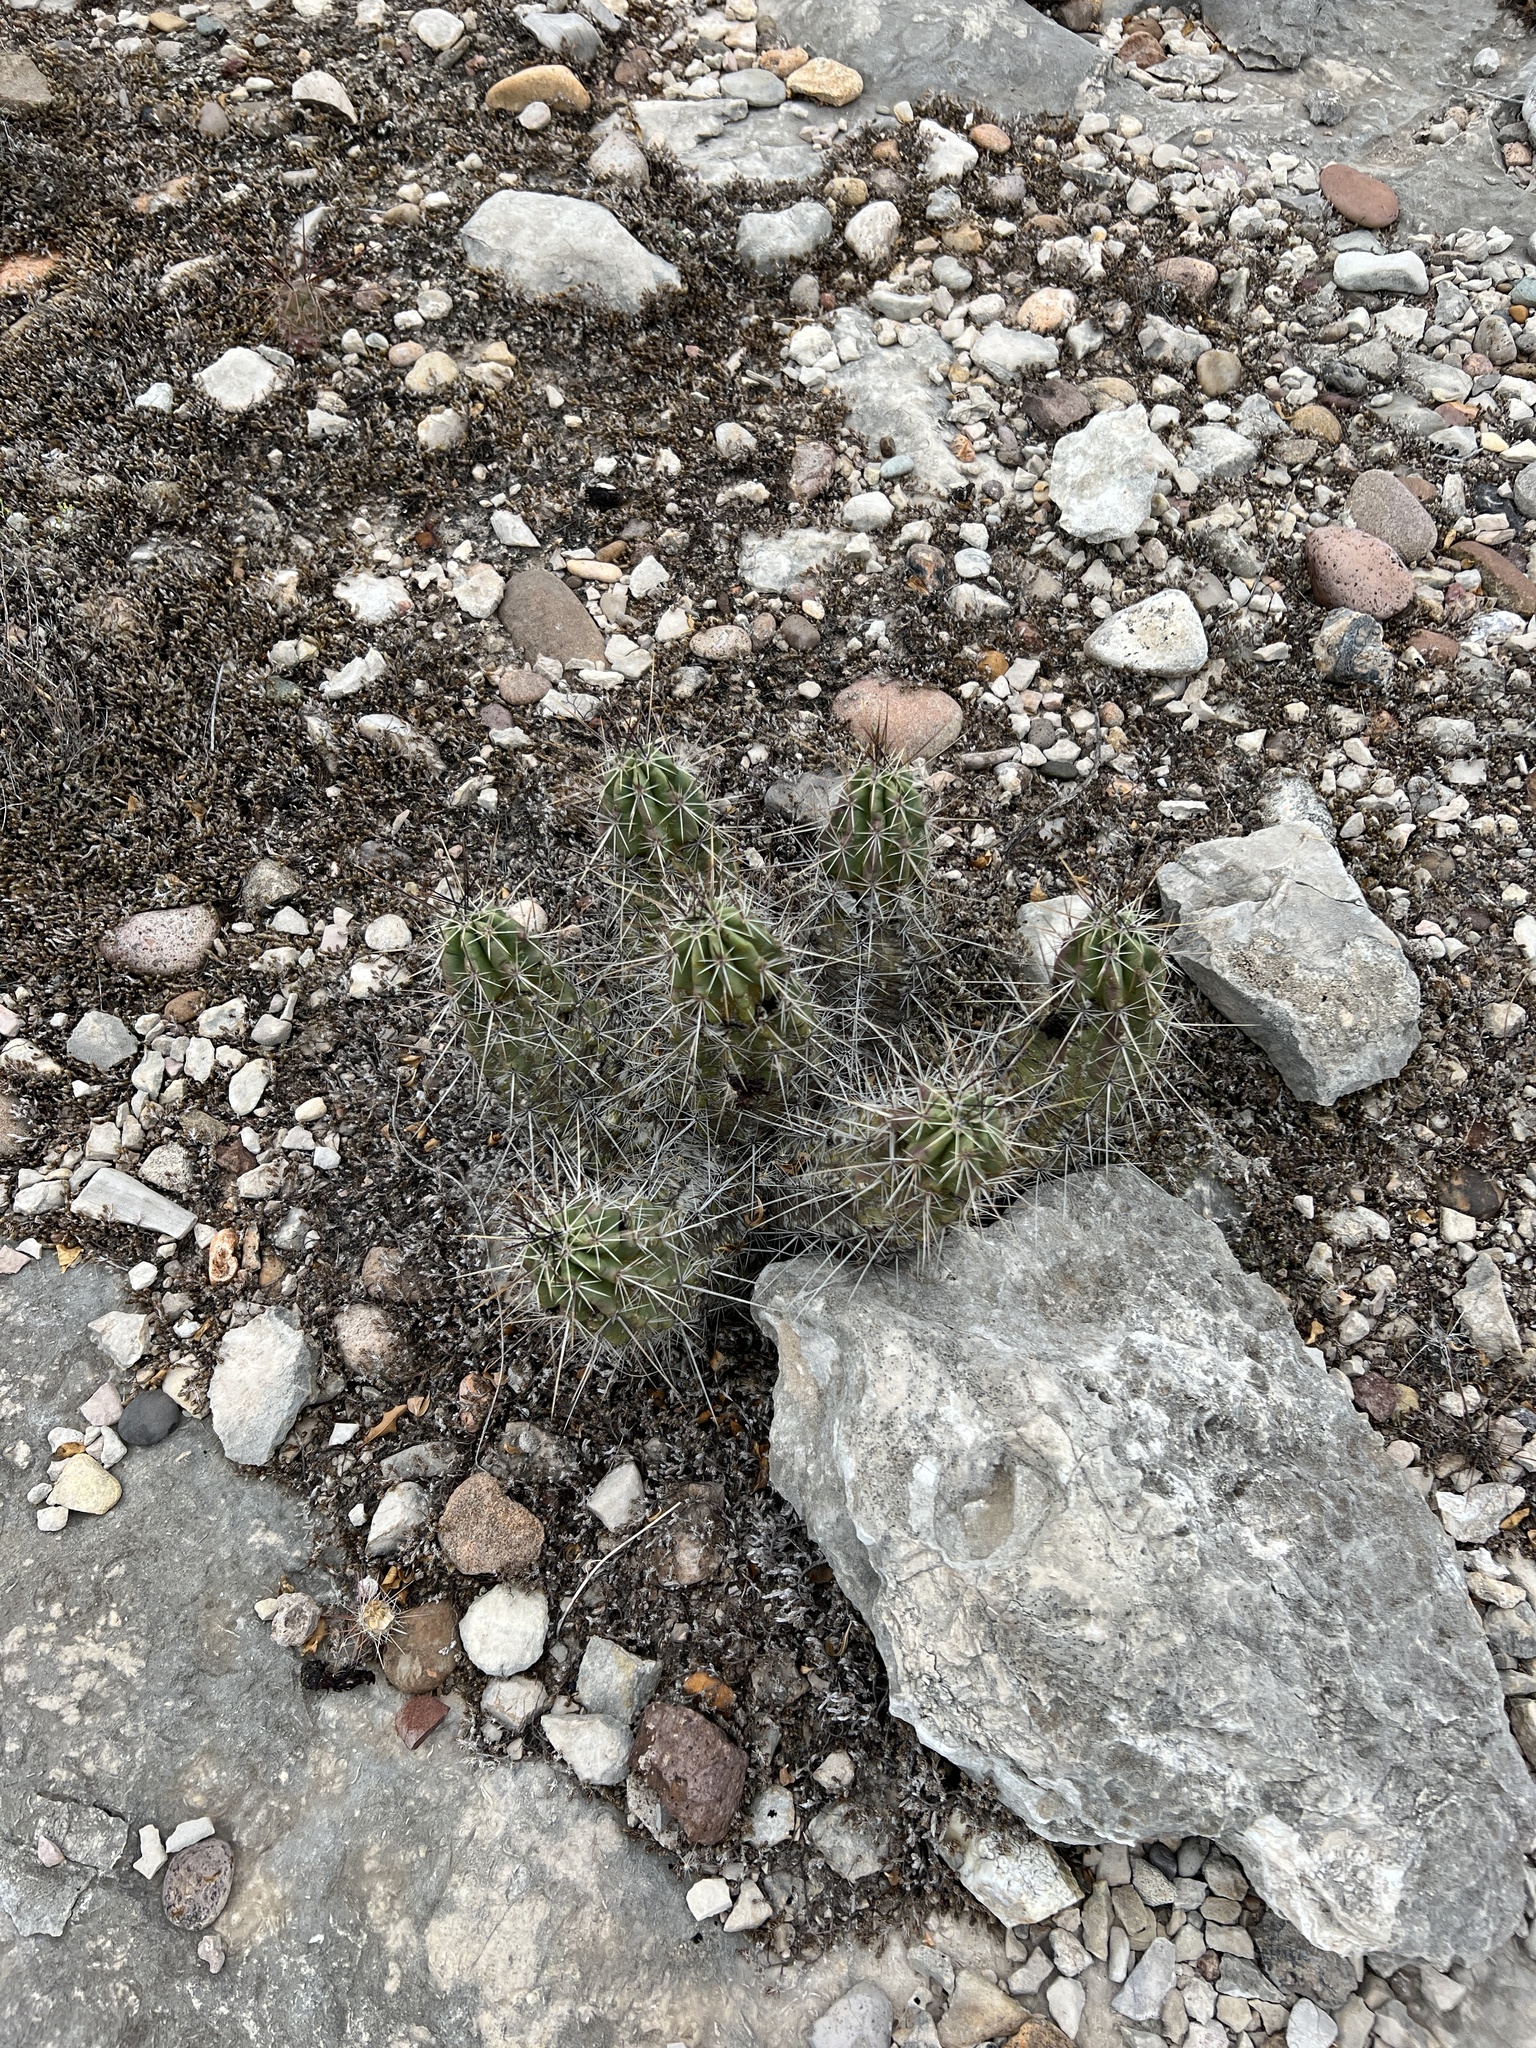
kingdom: Plantae
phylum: Tracheophyta
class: Magnoliopsida
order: Caryophyllales
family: Cactaceae
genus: Echinocereus
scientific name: Echinocereus enneacanthus
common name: Pitaya
